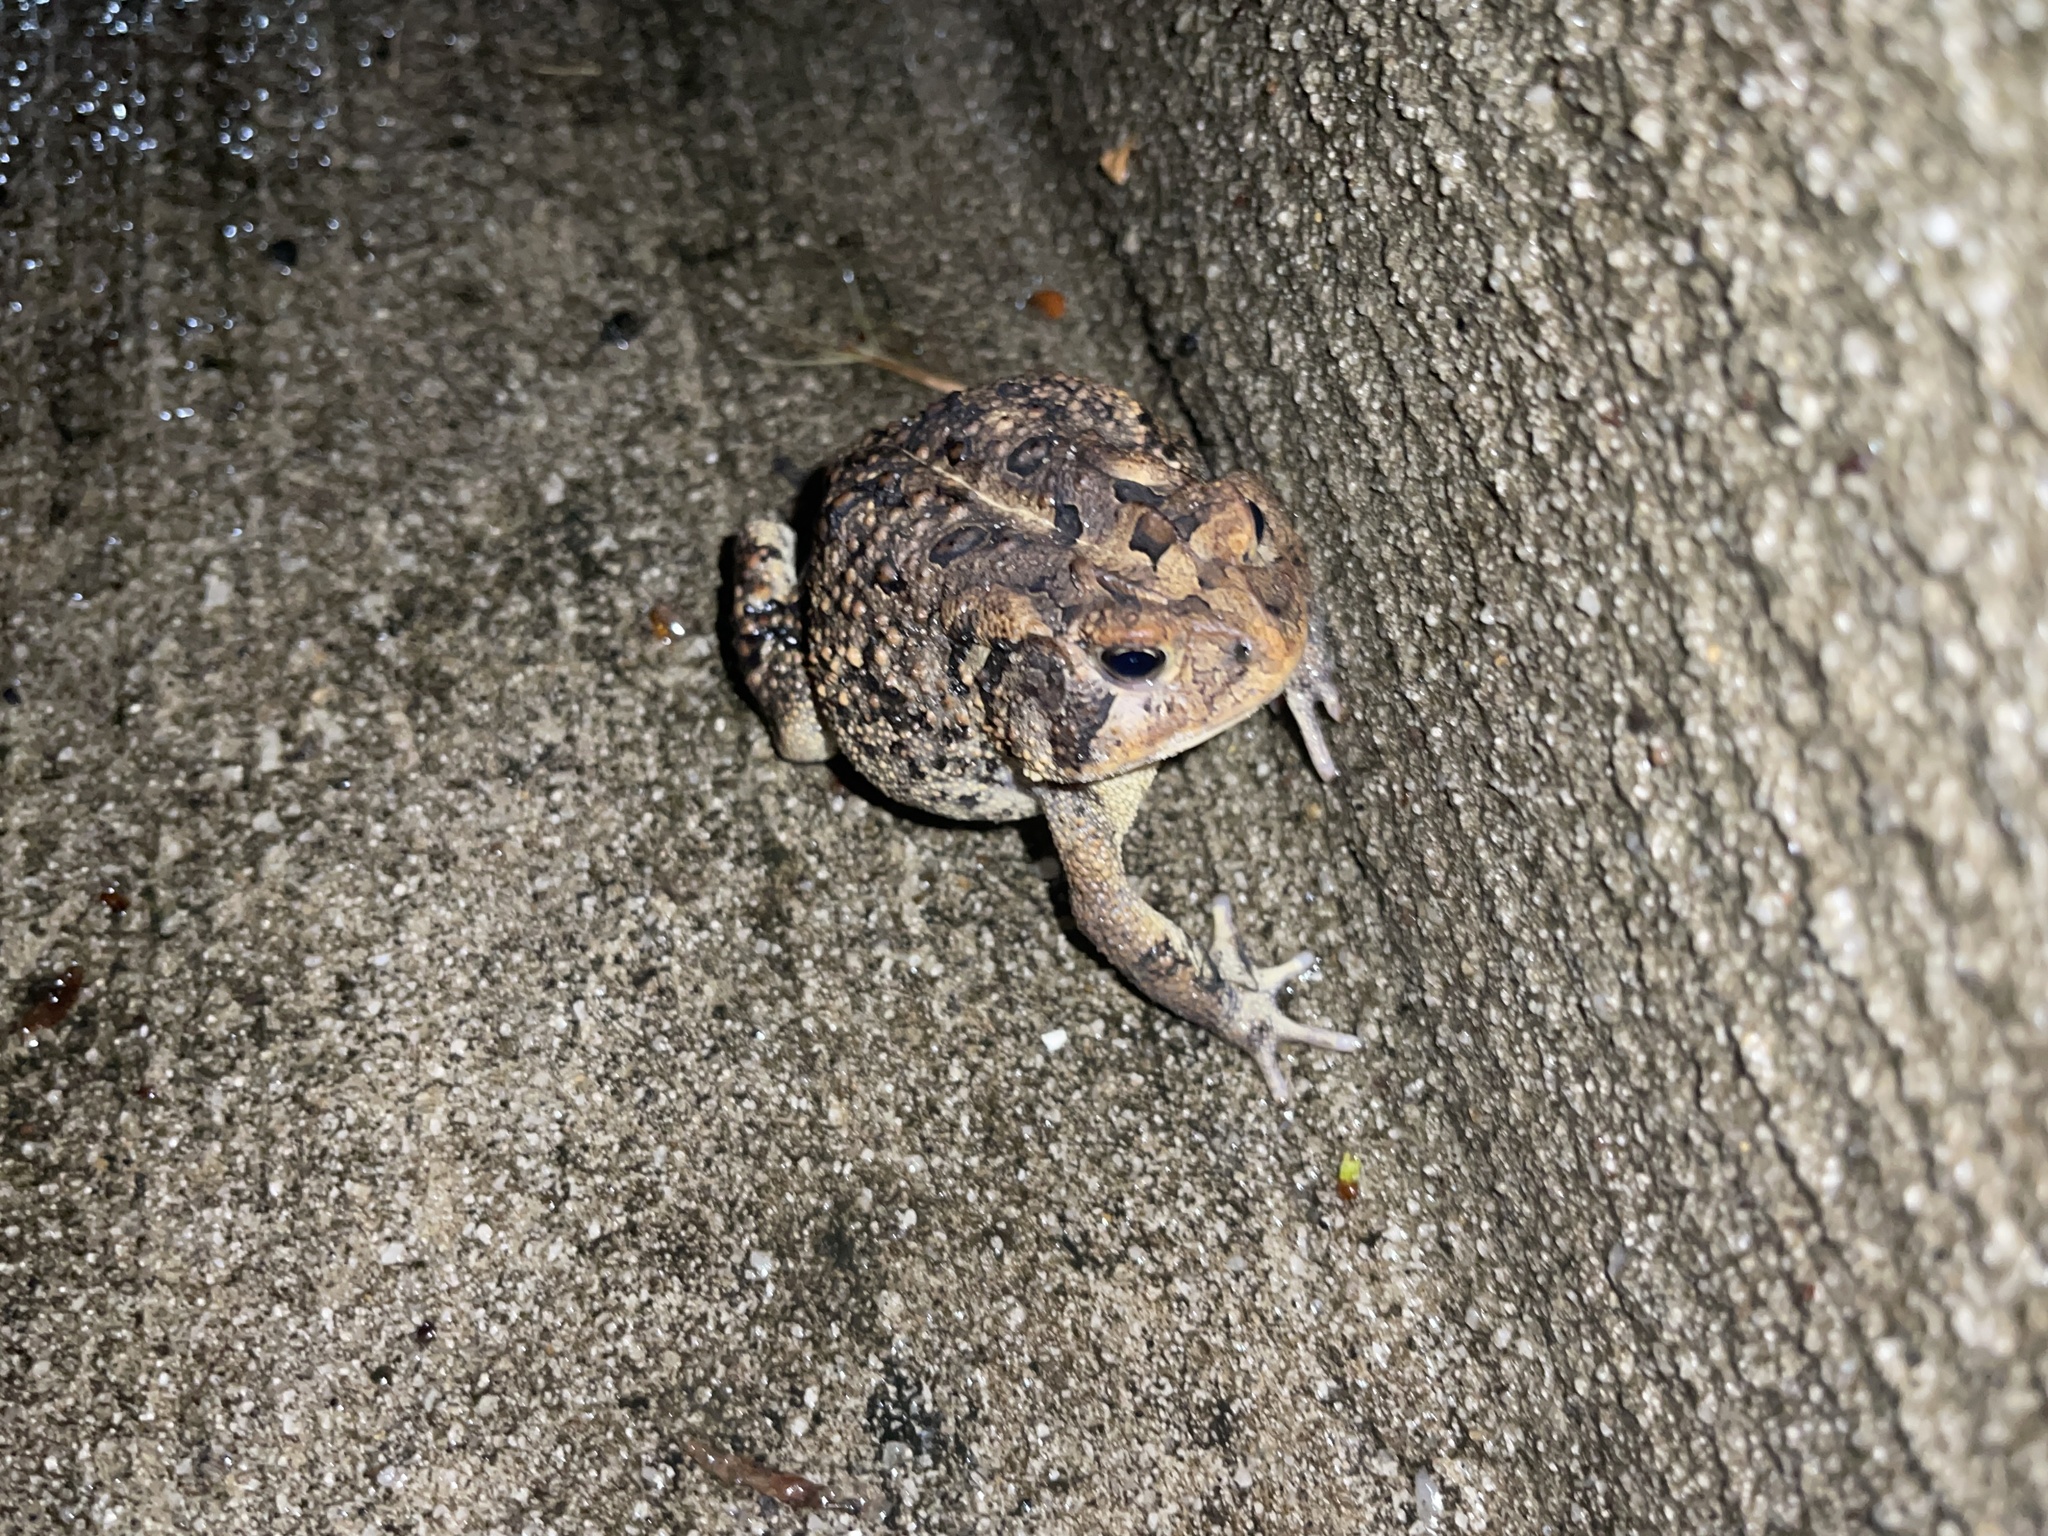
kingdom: Animalia
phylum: Chordata
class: Amphibia
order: Anura
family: Bufonidae
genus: Anaxyrus
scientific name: Anaxyrus terrestris
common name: Southern toad
